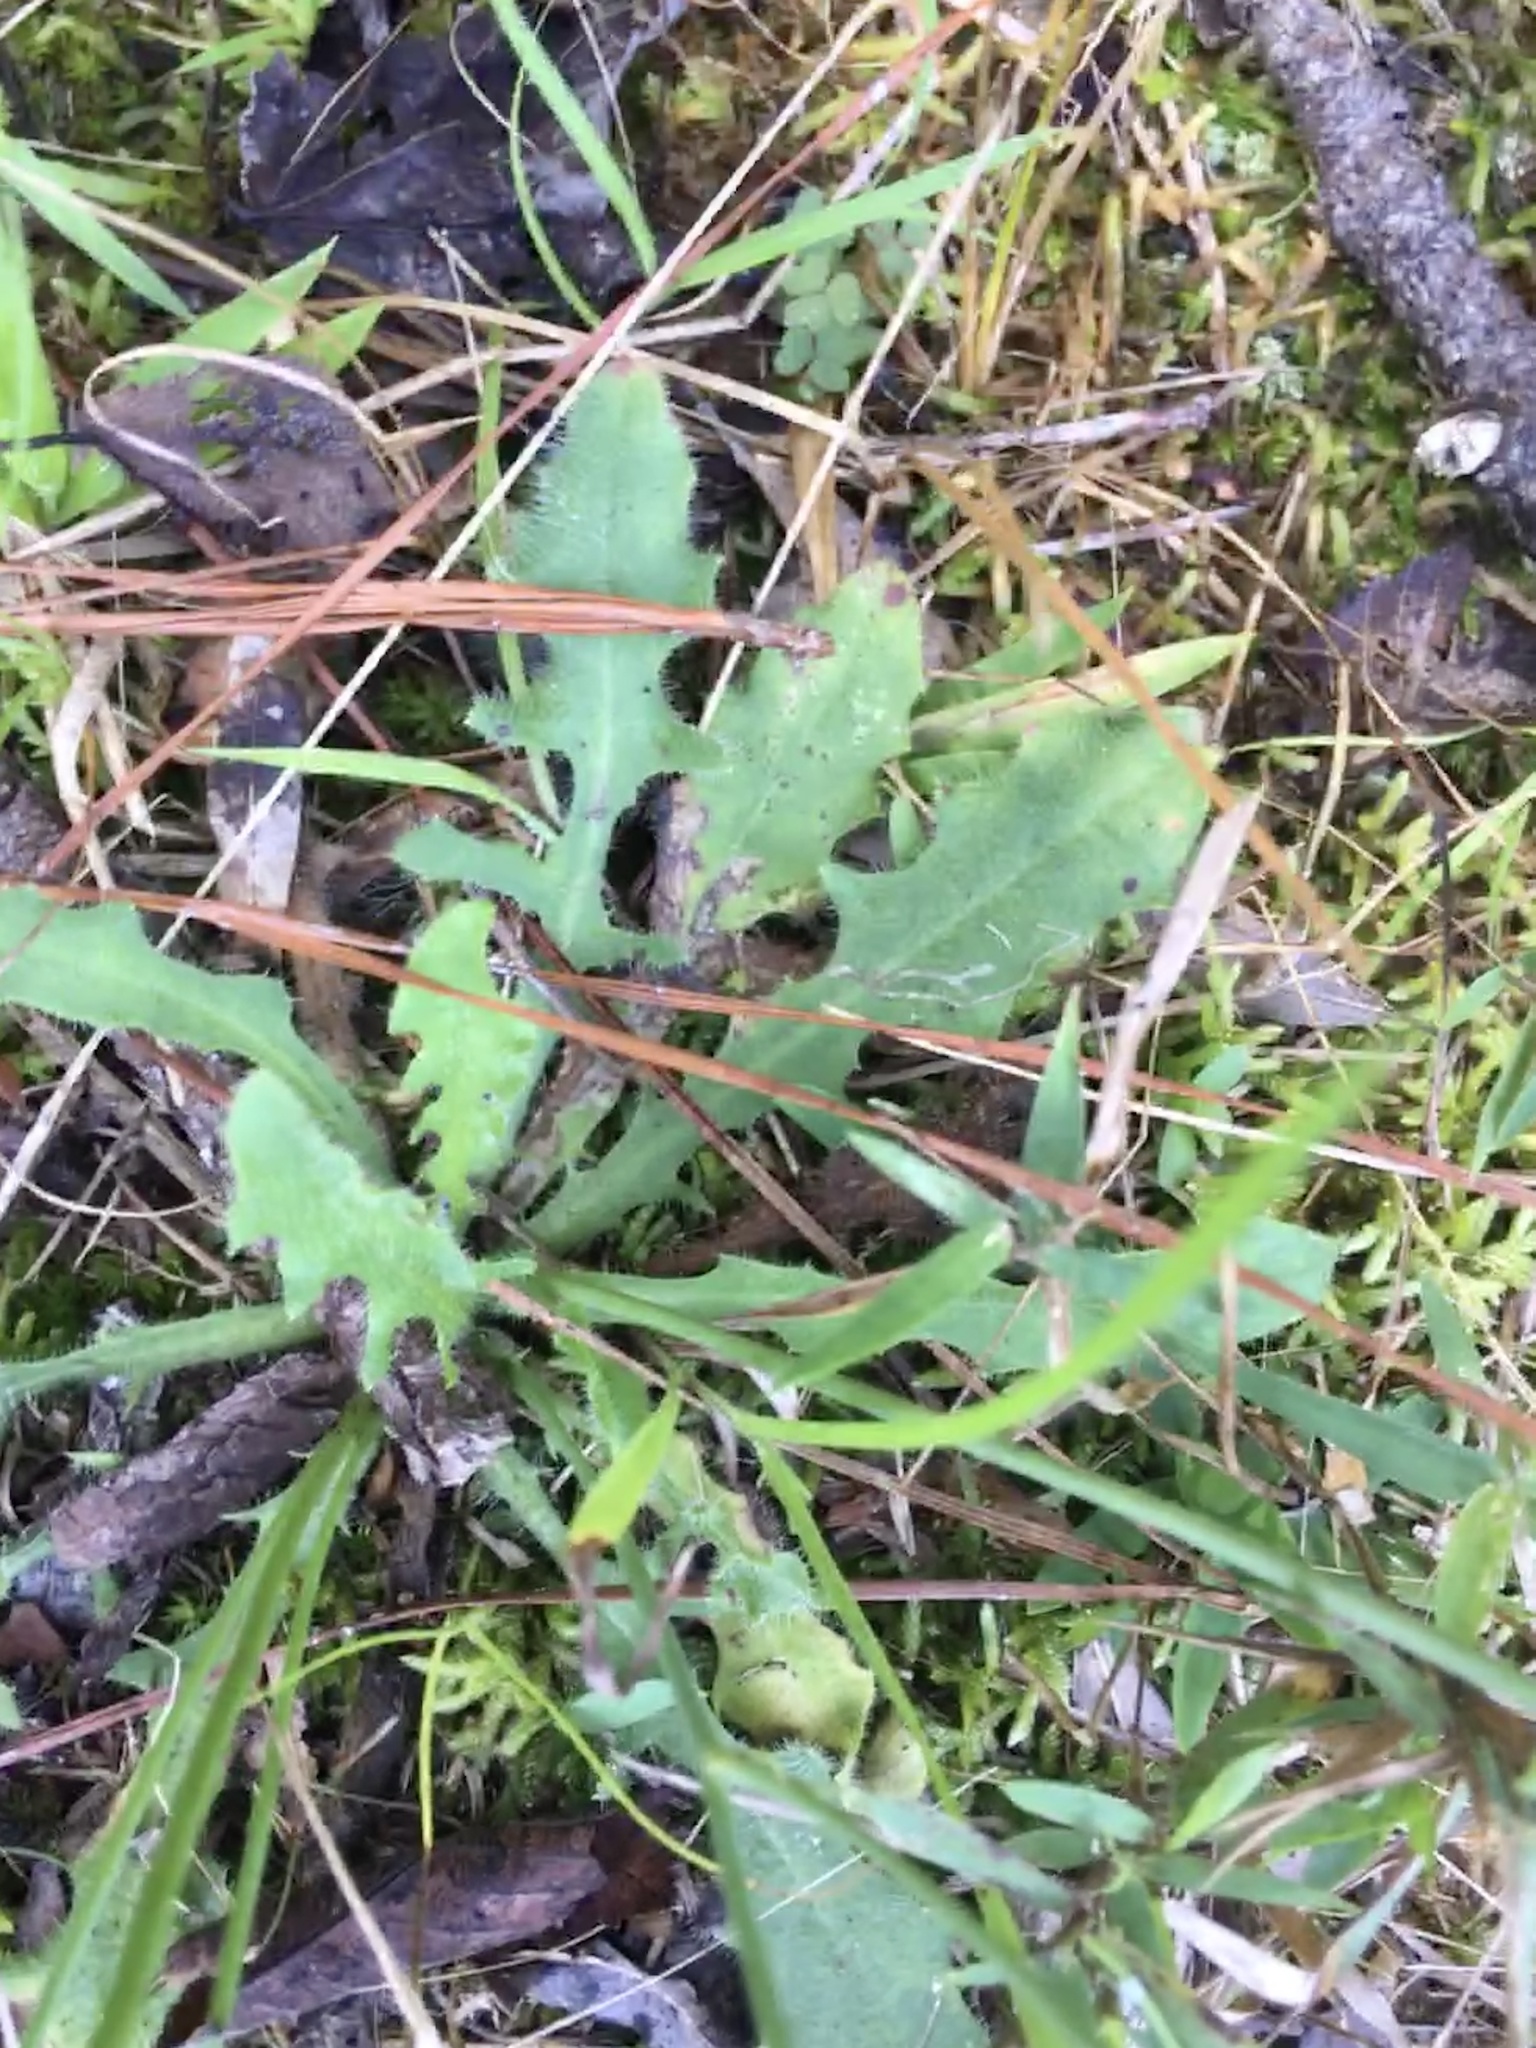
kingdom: Plantae
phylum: Tracheophyta
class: Magnoliopsida
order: Asterales
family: Asteraceae
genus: Hypochaeris
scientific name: Hypochaeris radicata
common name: Flatweed
